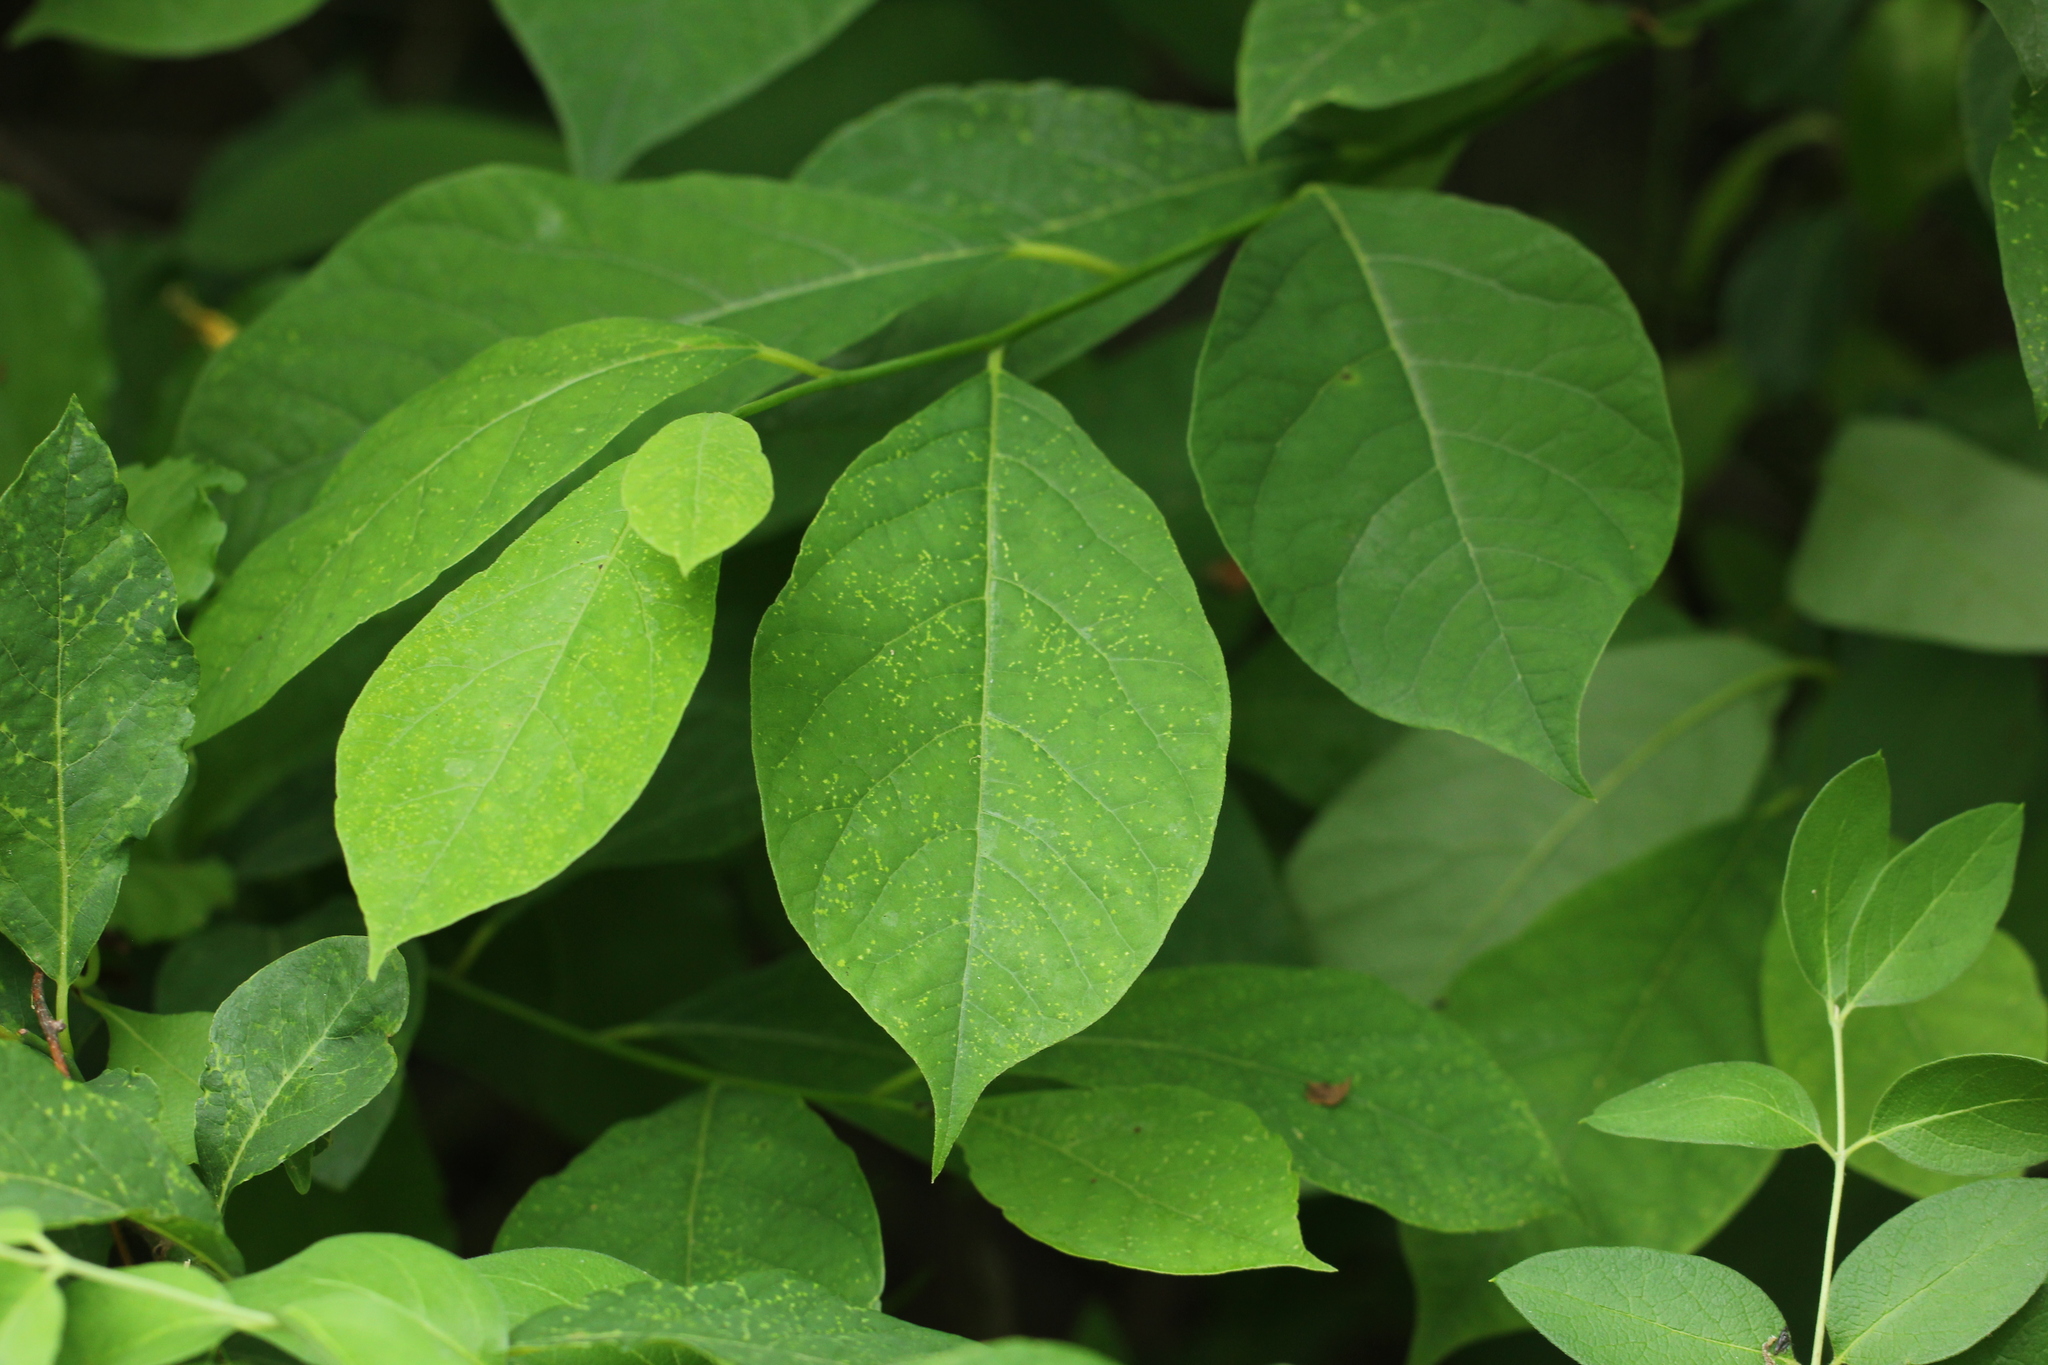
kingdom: Plantae
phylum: Tracheophyta
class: Magnoliopsida
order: Laurales
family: Lauraceae
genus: Lindera
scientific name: Lindera benzoin
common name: Spicebush
